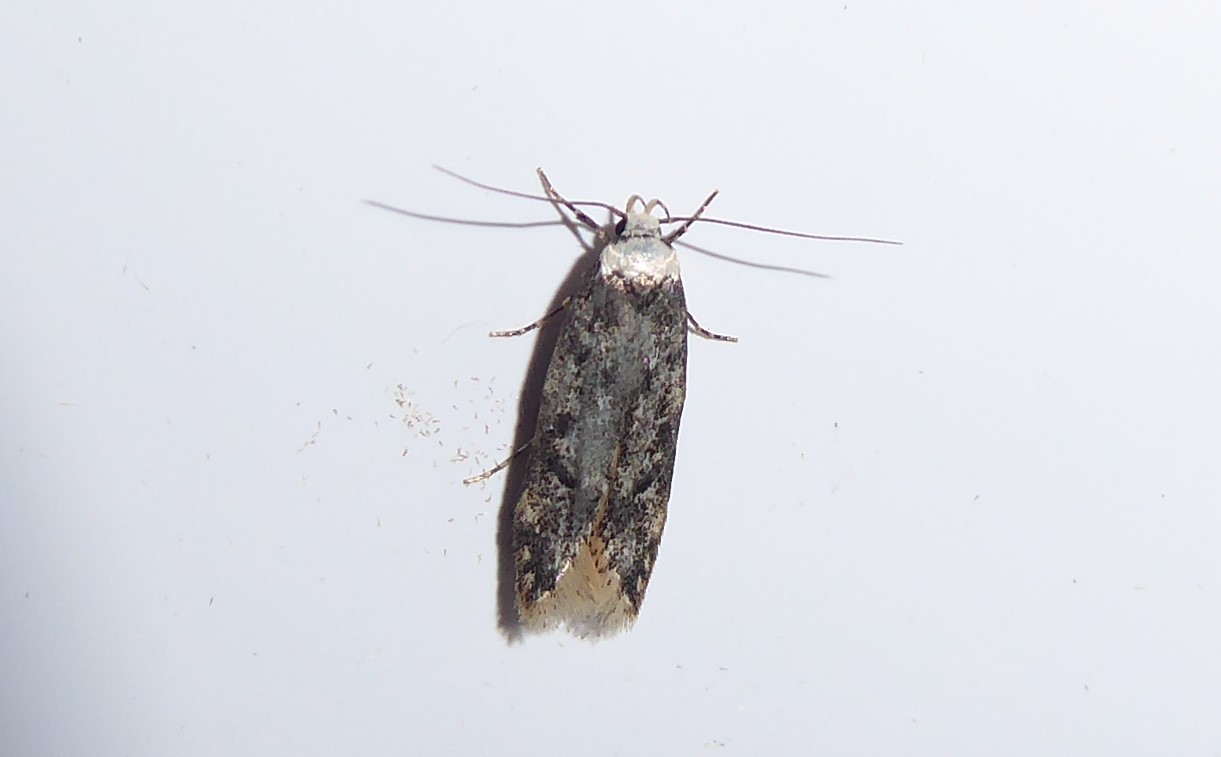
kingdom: Animalia
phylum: Arthropoda
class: Insecta
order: Lepidoptera
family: Oecophoridae
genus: Endrosis
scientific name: Endrosis sarcitrella
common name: White-shouldered house moth
